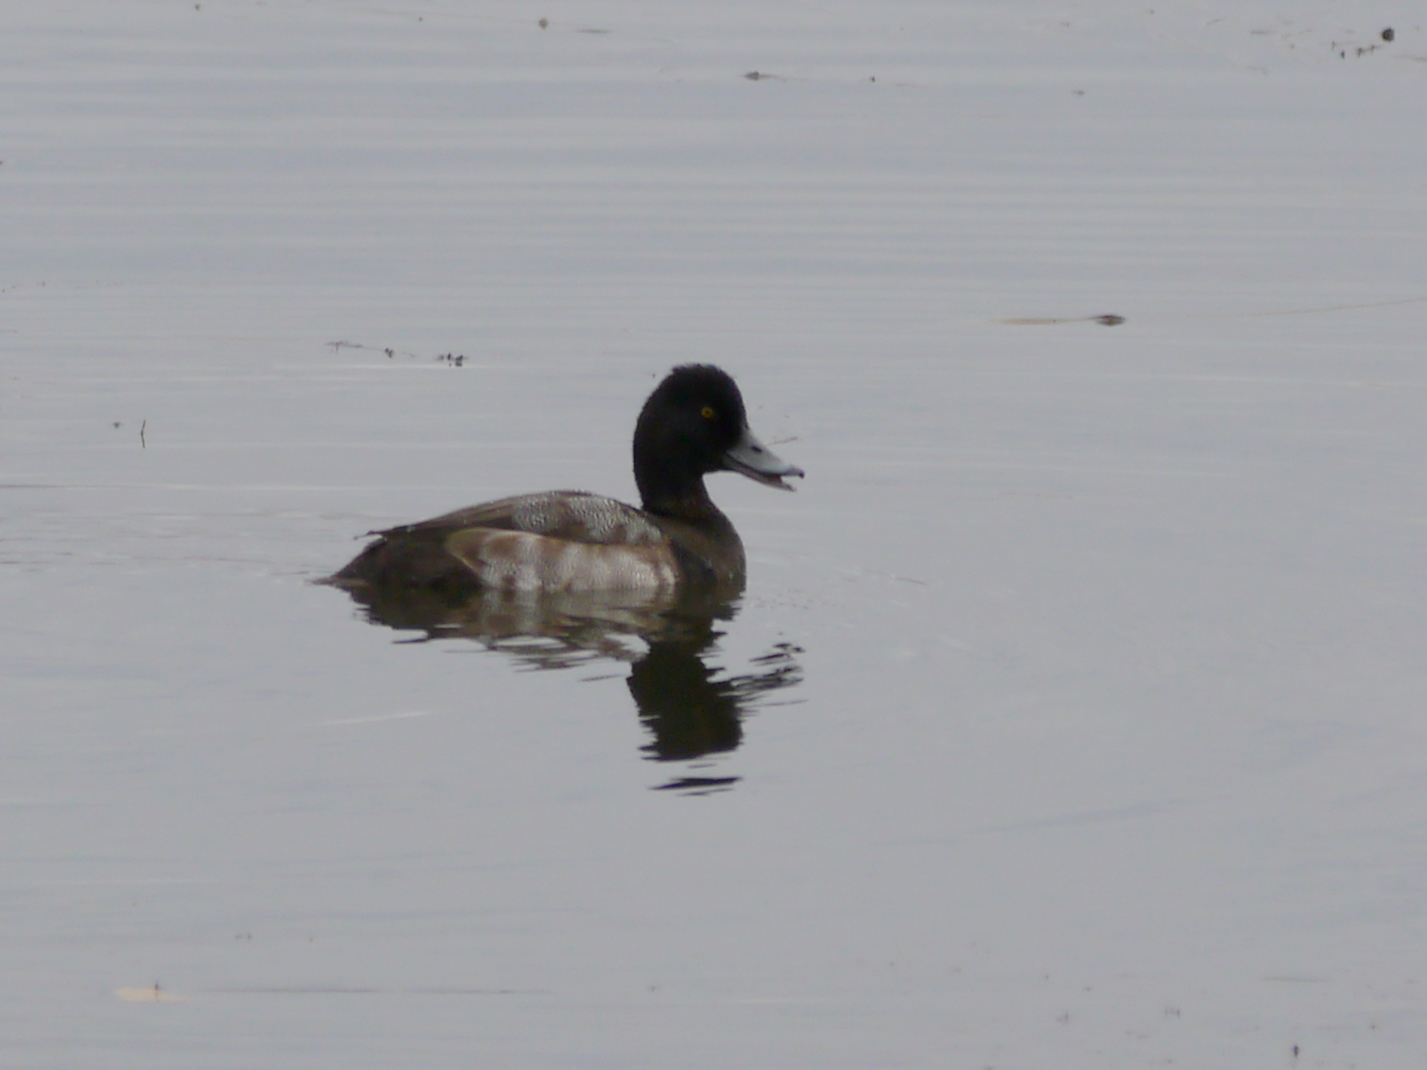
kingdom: Animalia
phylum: Chordata
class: Aves
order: Anseriformes
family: Anatidae
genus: Aythya
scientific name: Aythya affinis
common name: Lesser scaup
